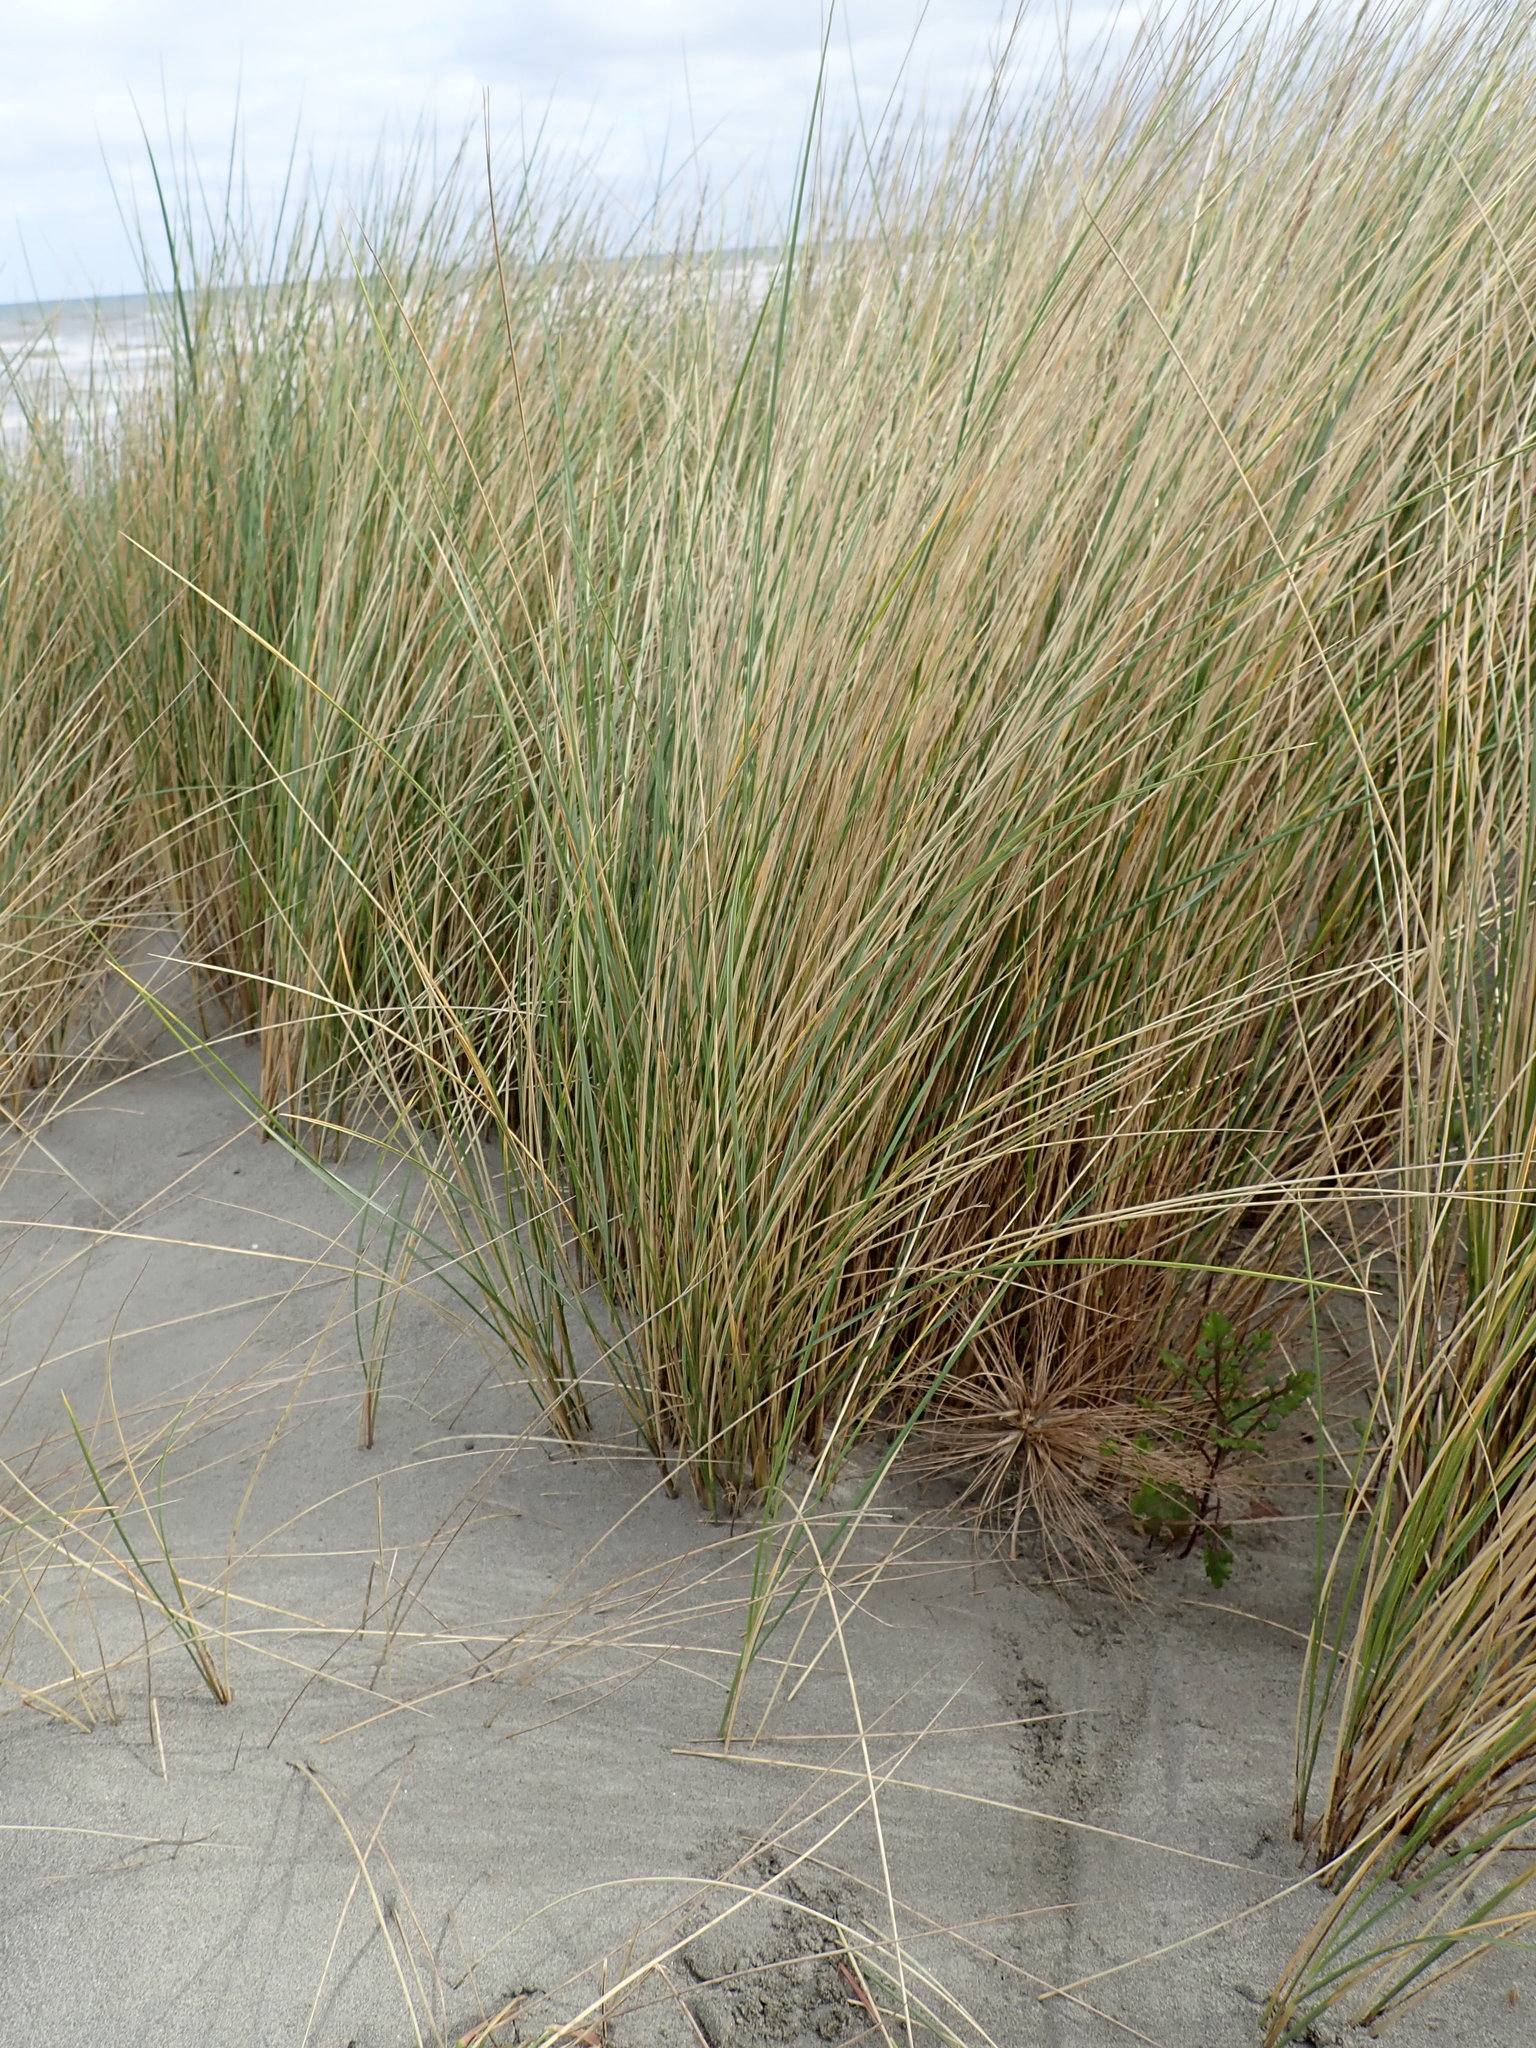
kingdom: Plantae
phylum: Tracheophyta
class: Liliopsida
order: Poales
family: Poaceae
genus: Calamagrostis
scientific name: Calamagrostis arenaria
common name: European beachgrass
